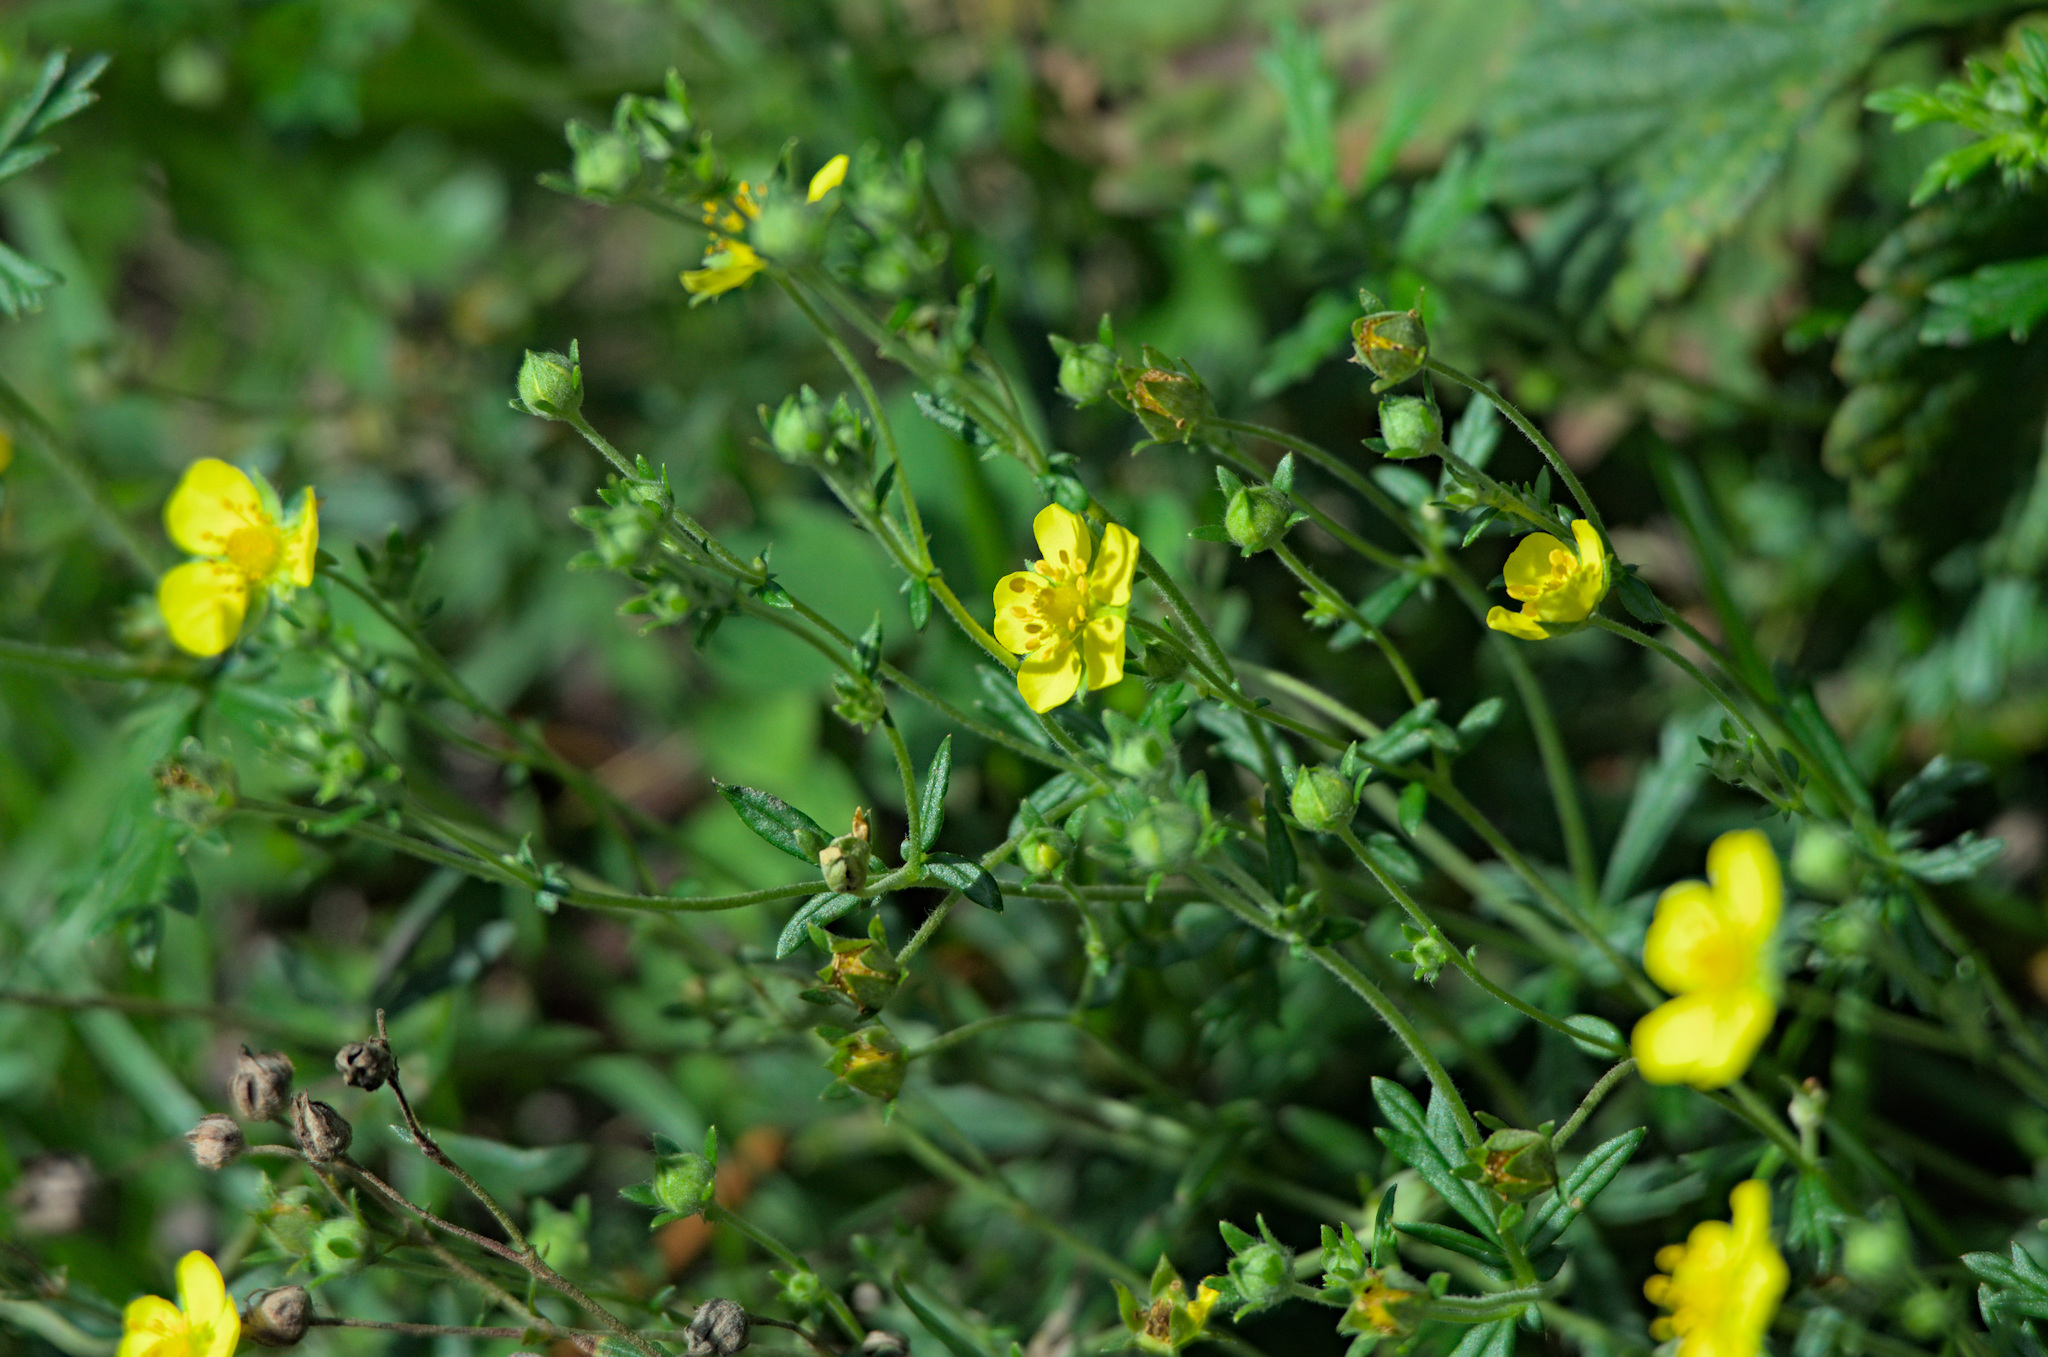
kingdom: Plantae
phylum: Tracheophyta
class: Magnoliopsida
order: Rosales
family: Rosaceae
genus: Potentilla
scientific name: Potentilla argentea
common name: Hoary cinquefoil
